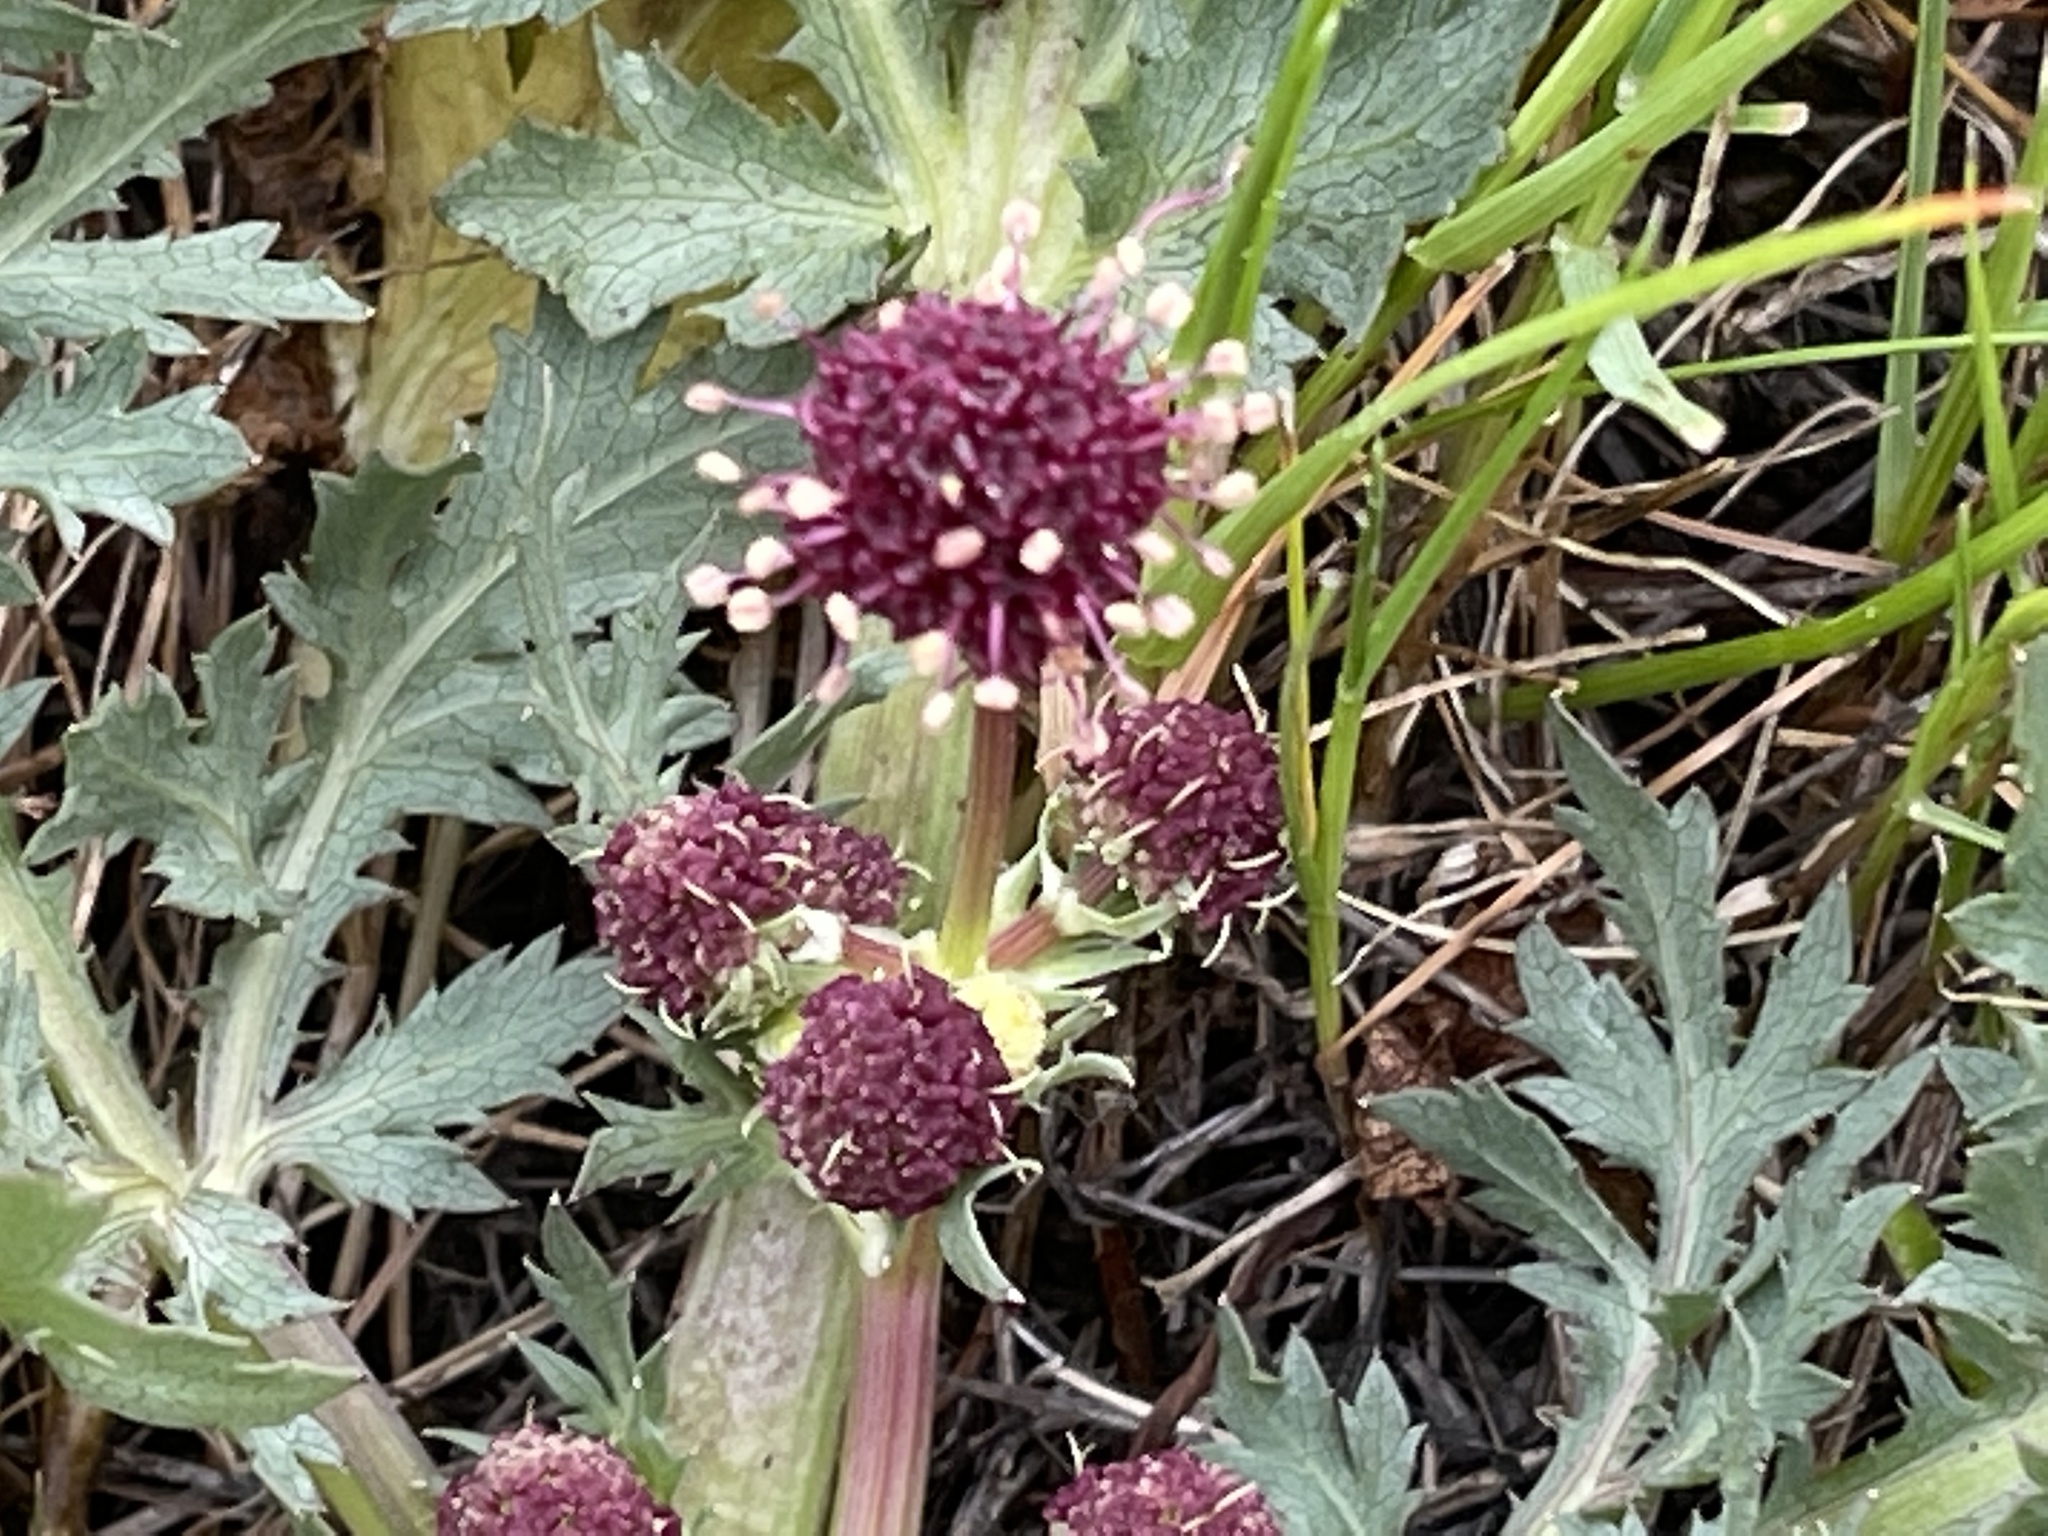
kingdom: Plantae
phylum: Tracheophyta
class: Magnoliopsida
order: Apiales
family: Apiaceae
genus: Sanicula
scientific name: Sanicula bipinnatifida
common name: Shoe-buttons
